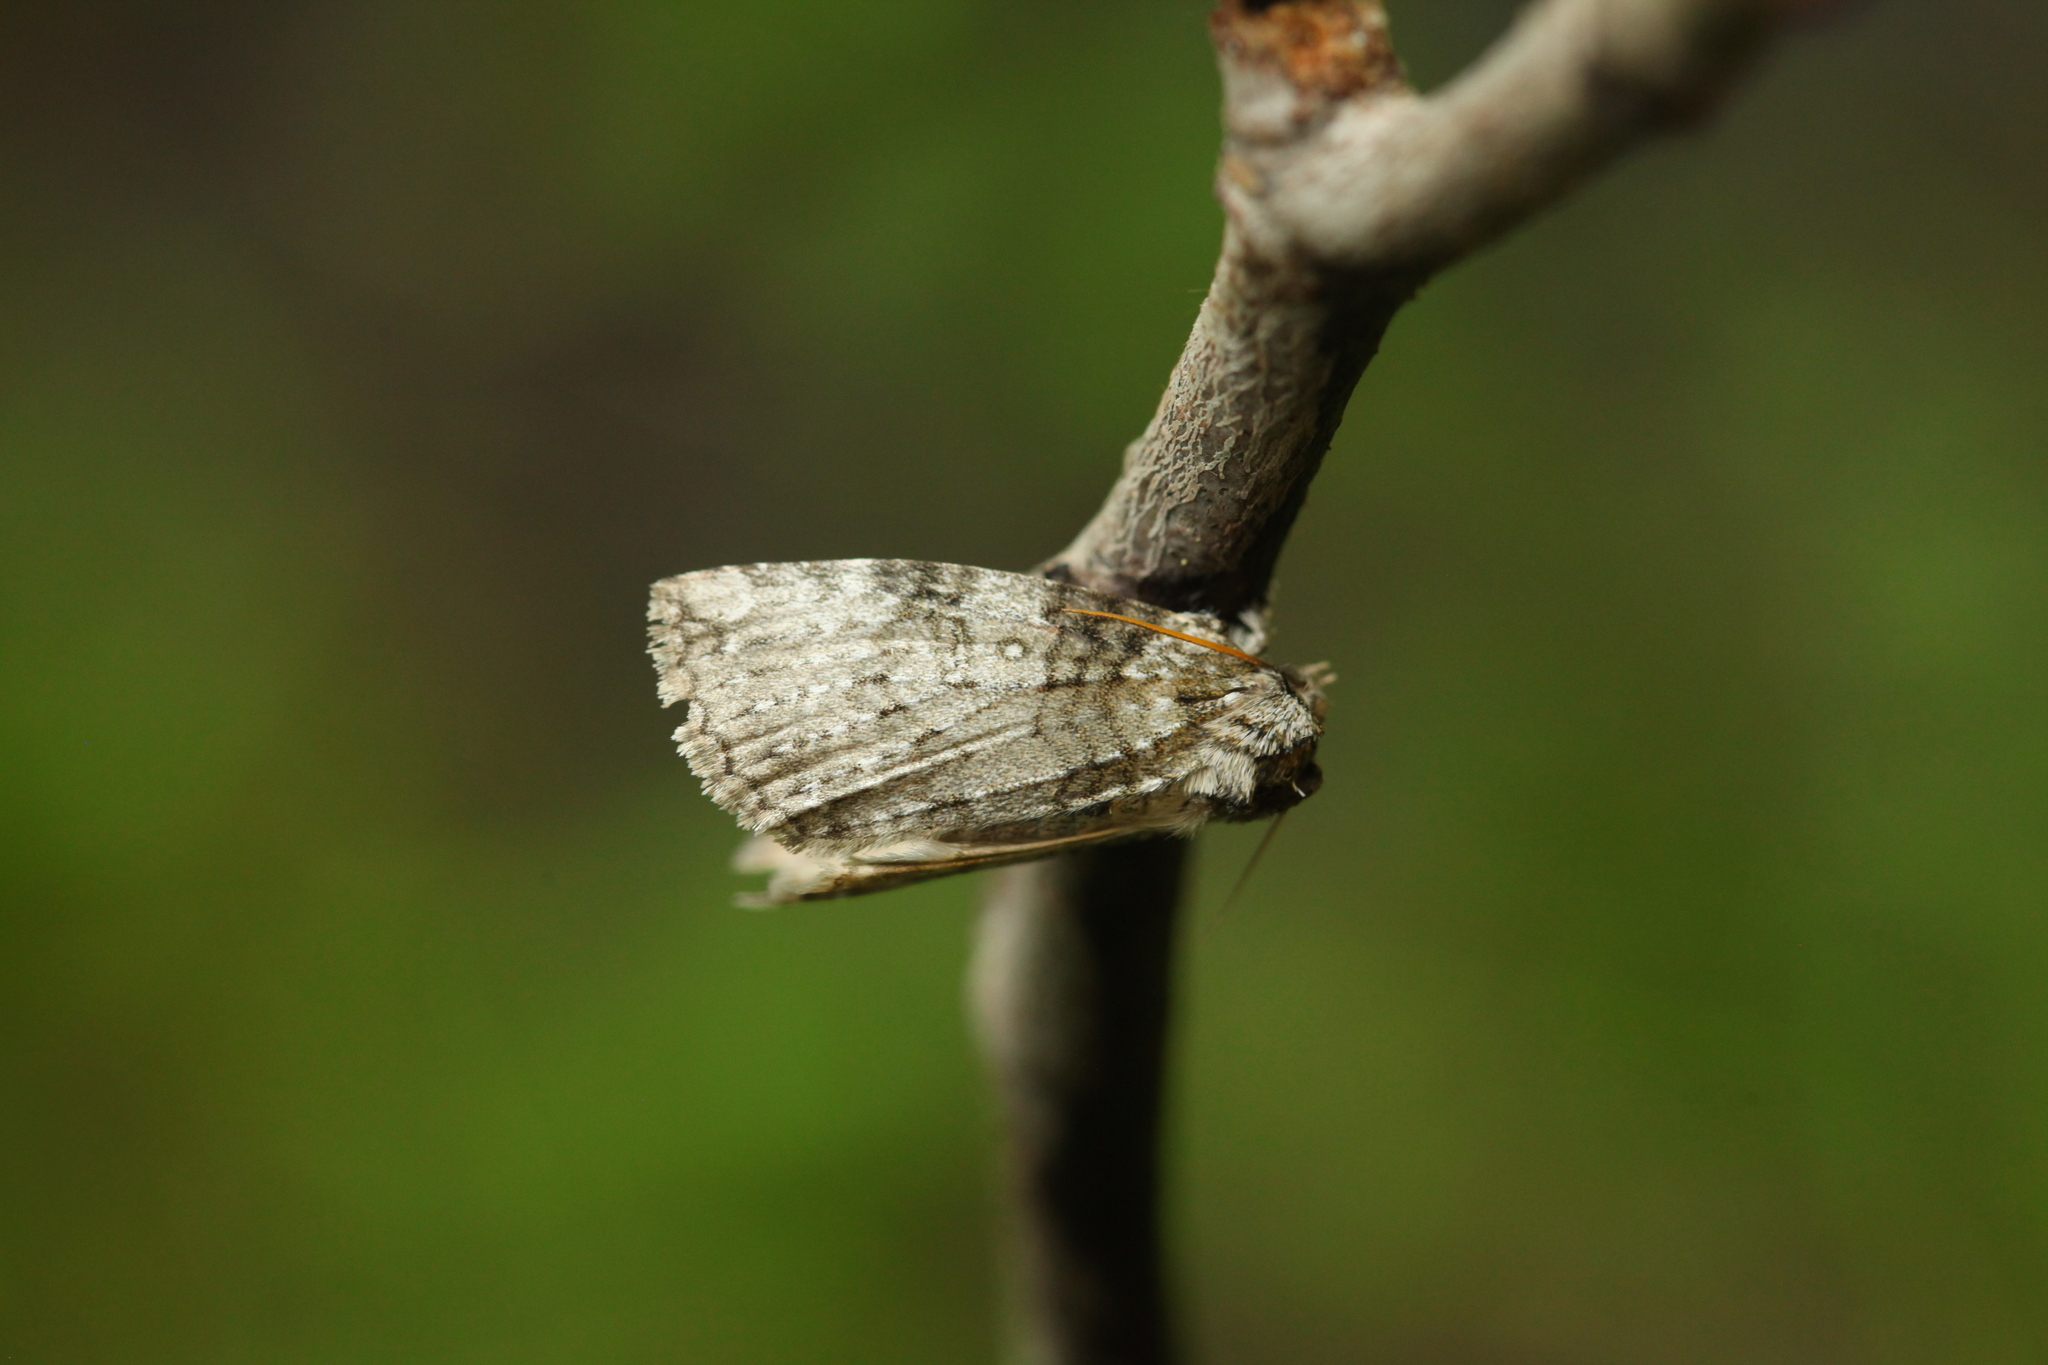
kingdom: Animalia
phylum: Arthropoda
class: Insecta
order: Lepidoptera
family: Drepanidae
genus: Parapsestis
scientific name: Parapsestis argenteopicta
